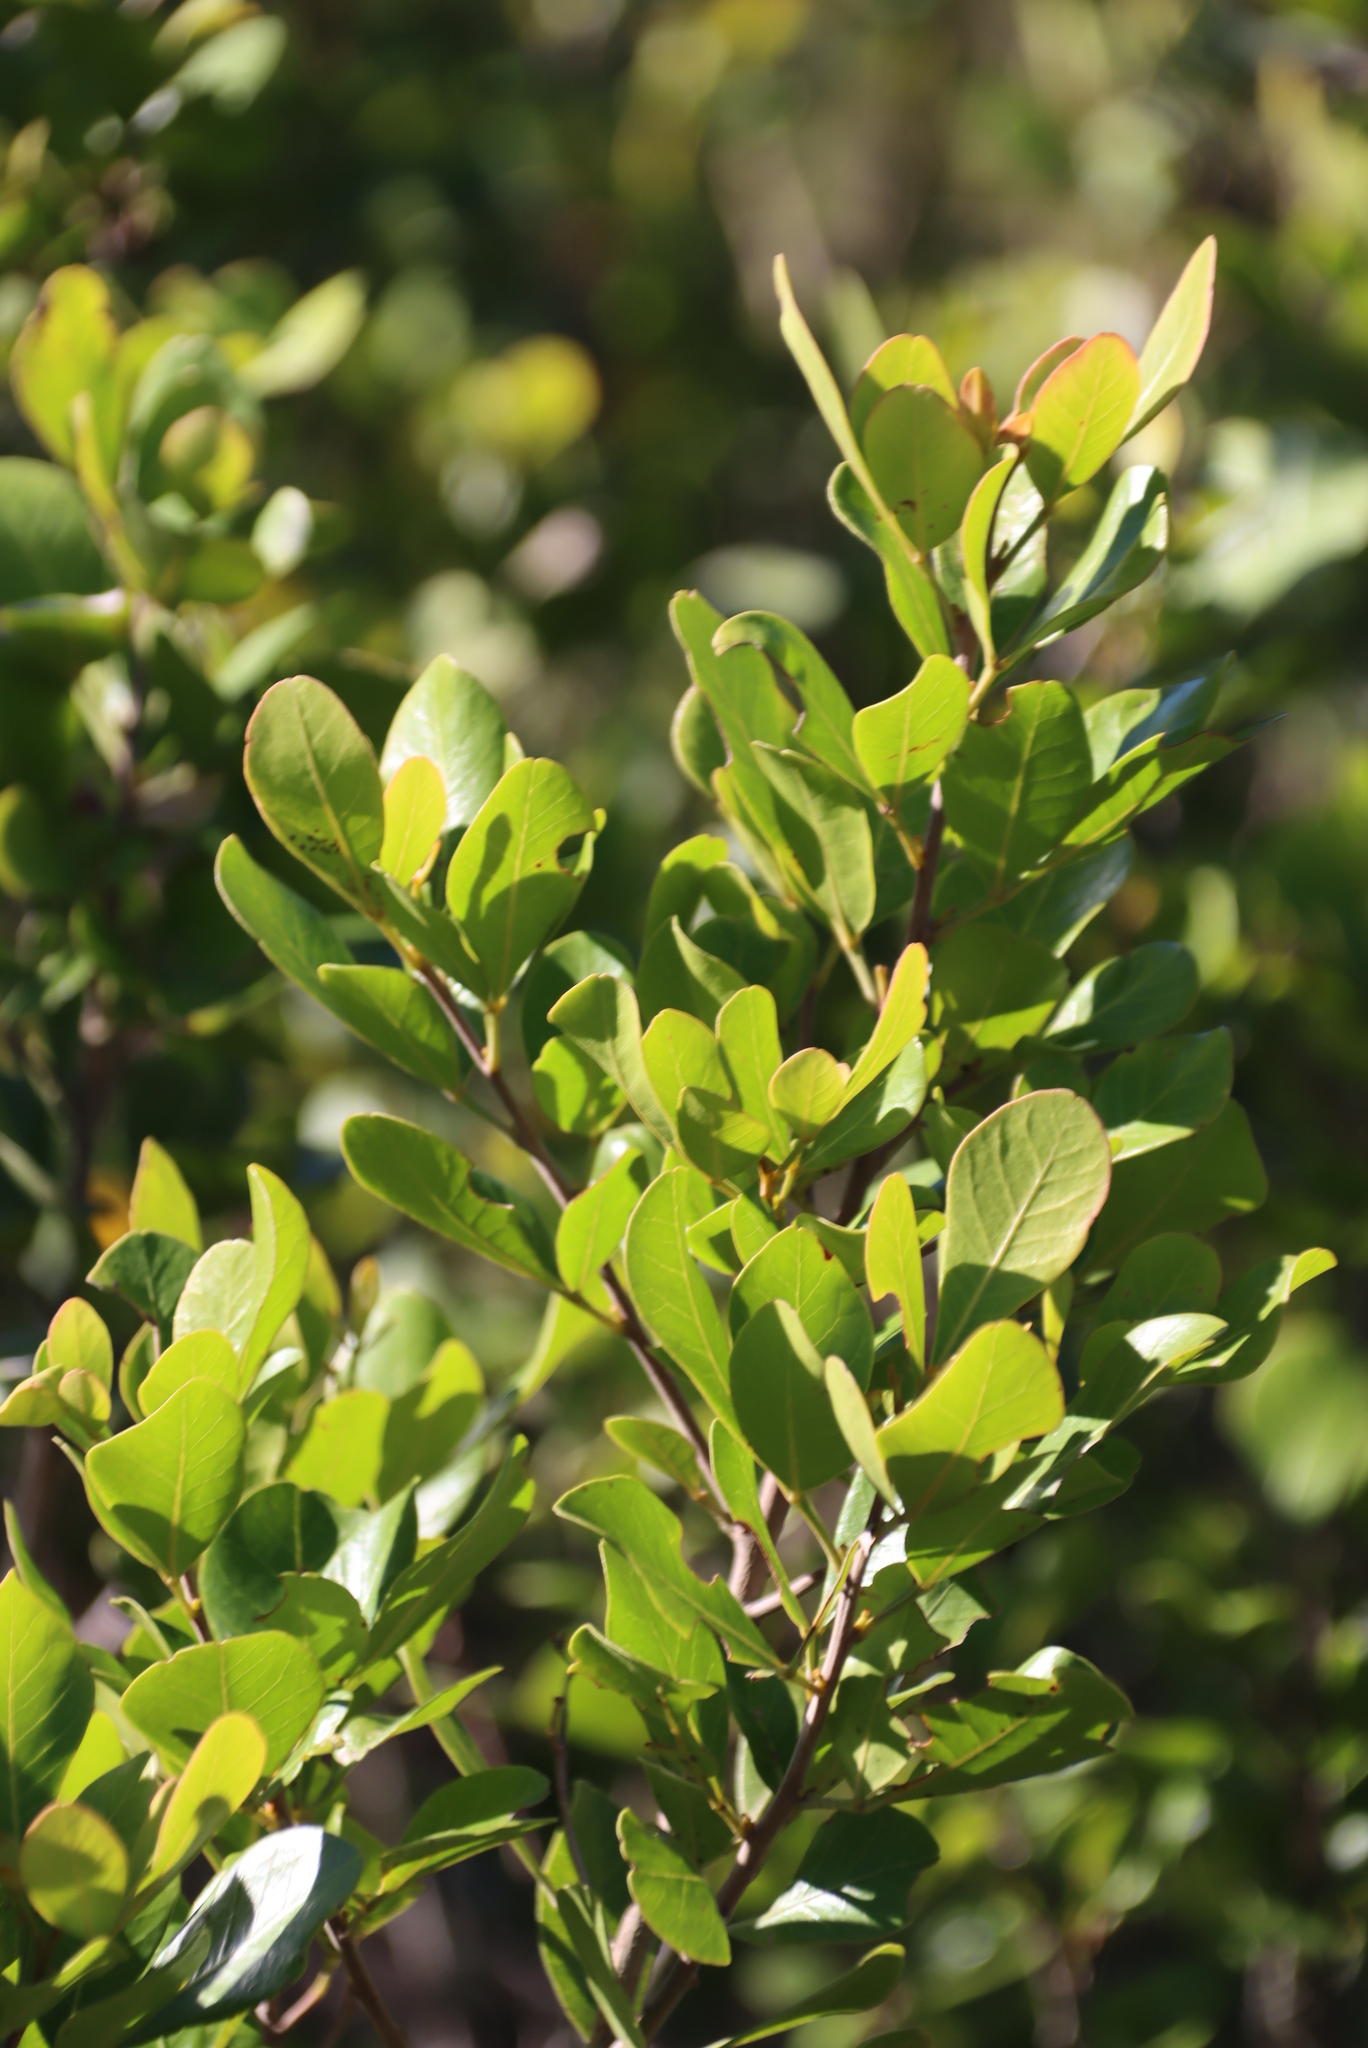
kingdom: Plantae
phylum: Tracheophyta
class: Magnoliopsida
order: Sapindales
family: Anacardiaceae
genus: Searsia
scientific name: Searsia lucida
